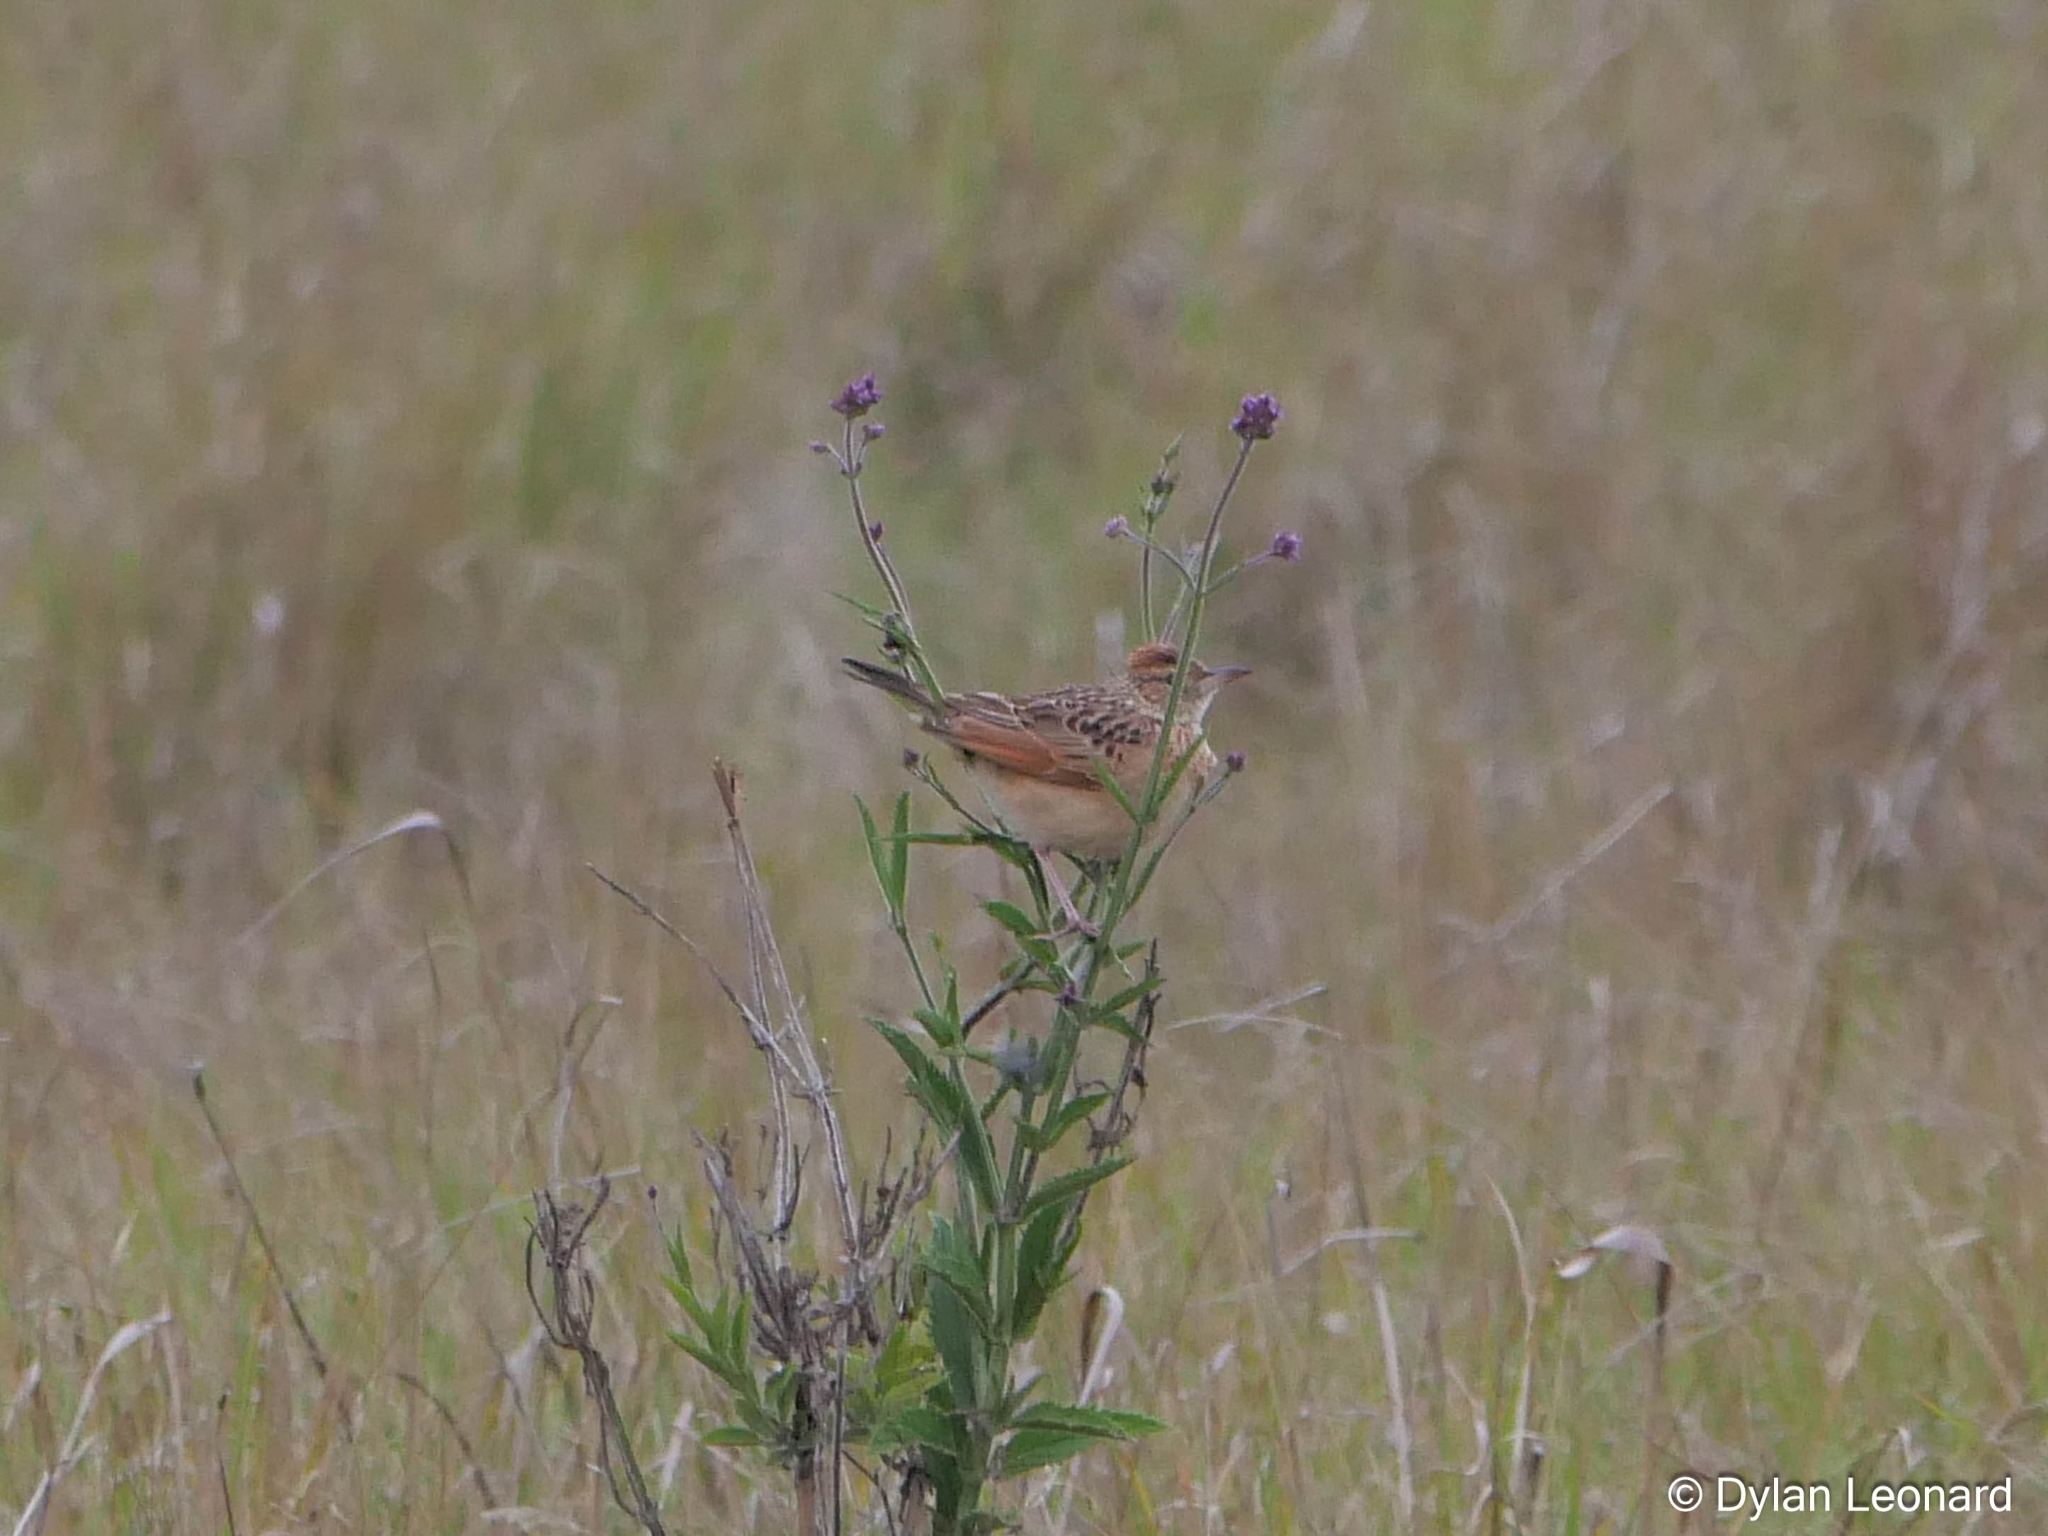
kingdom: Animalia
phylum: Chordata
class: Aves
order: Passeriformes
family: Alaudidae
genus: Mirafra
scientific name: Mirafra africana
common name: Rufous-naped lark
